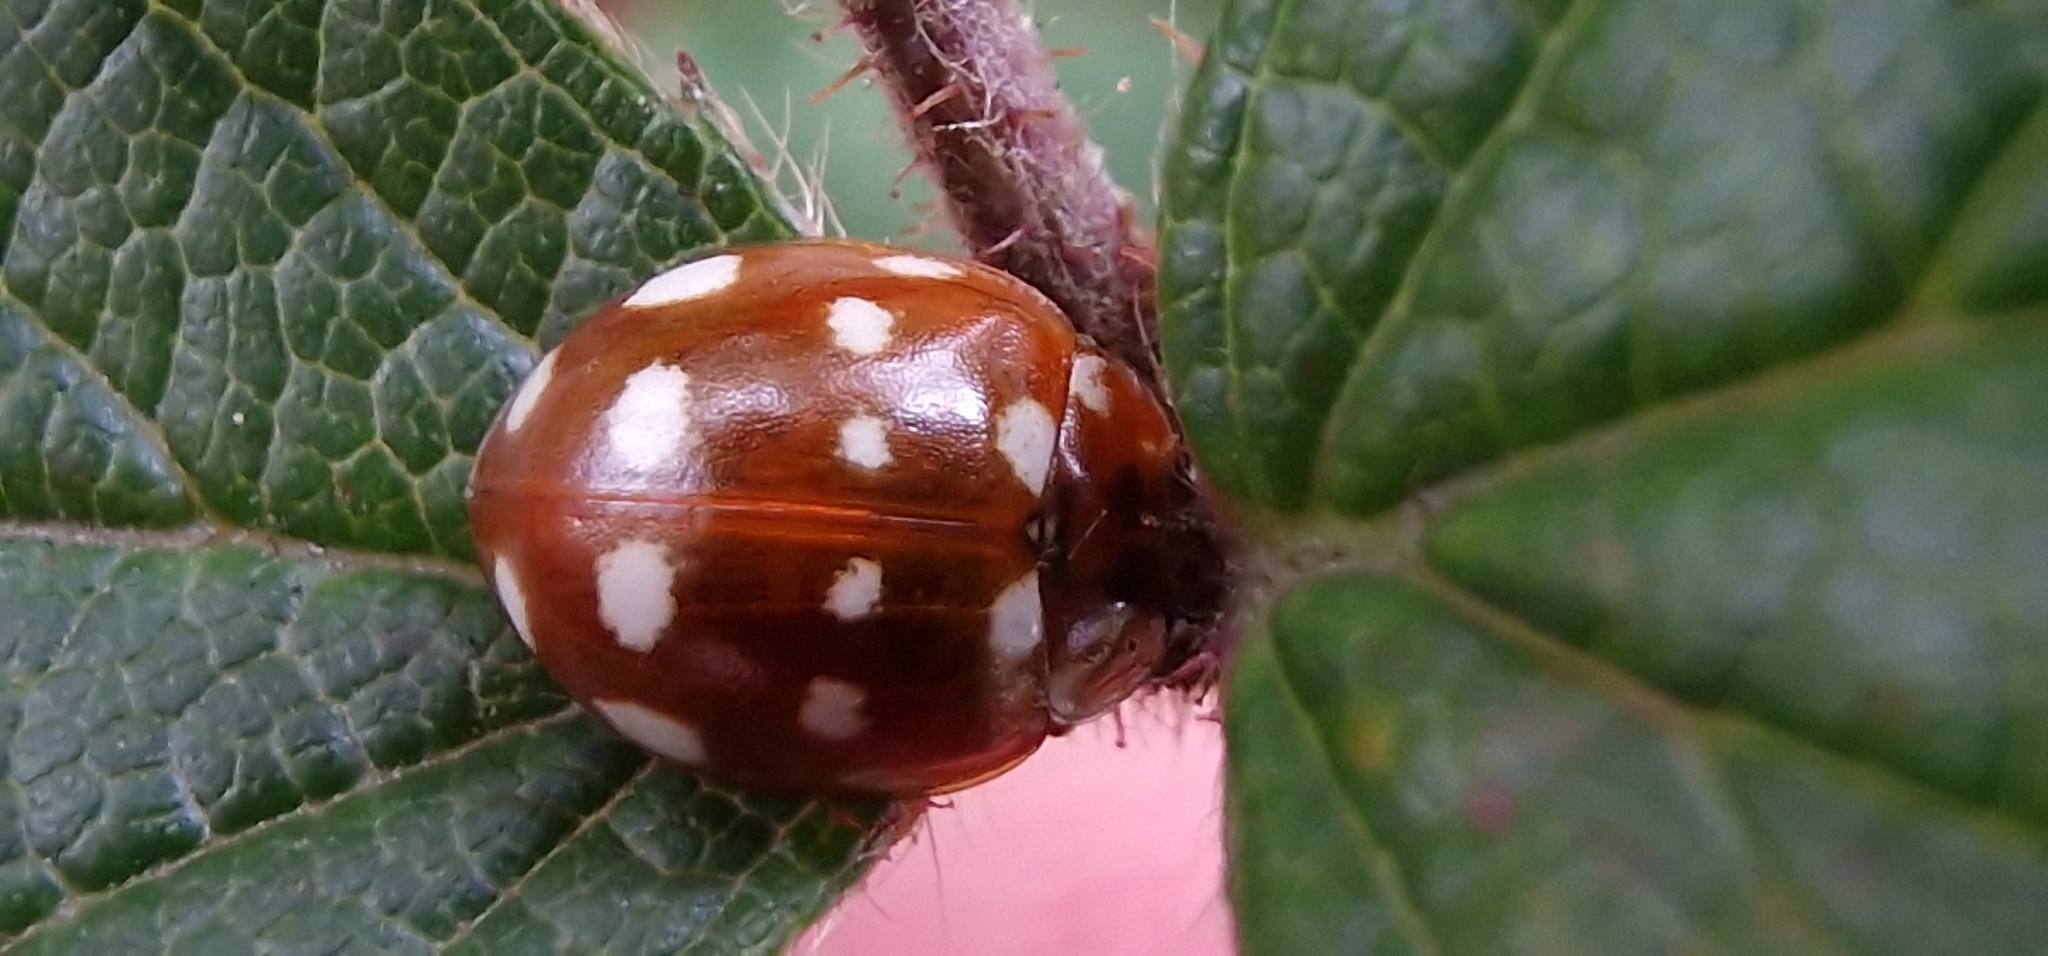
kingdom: Animalia
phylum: Arthropoda
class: Insecta
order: Coleoptera
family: Coccinellidae
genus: Calvia
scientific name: Calvia quatuordecimguttata
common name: Cream-spot ladybird
